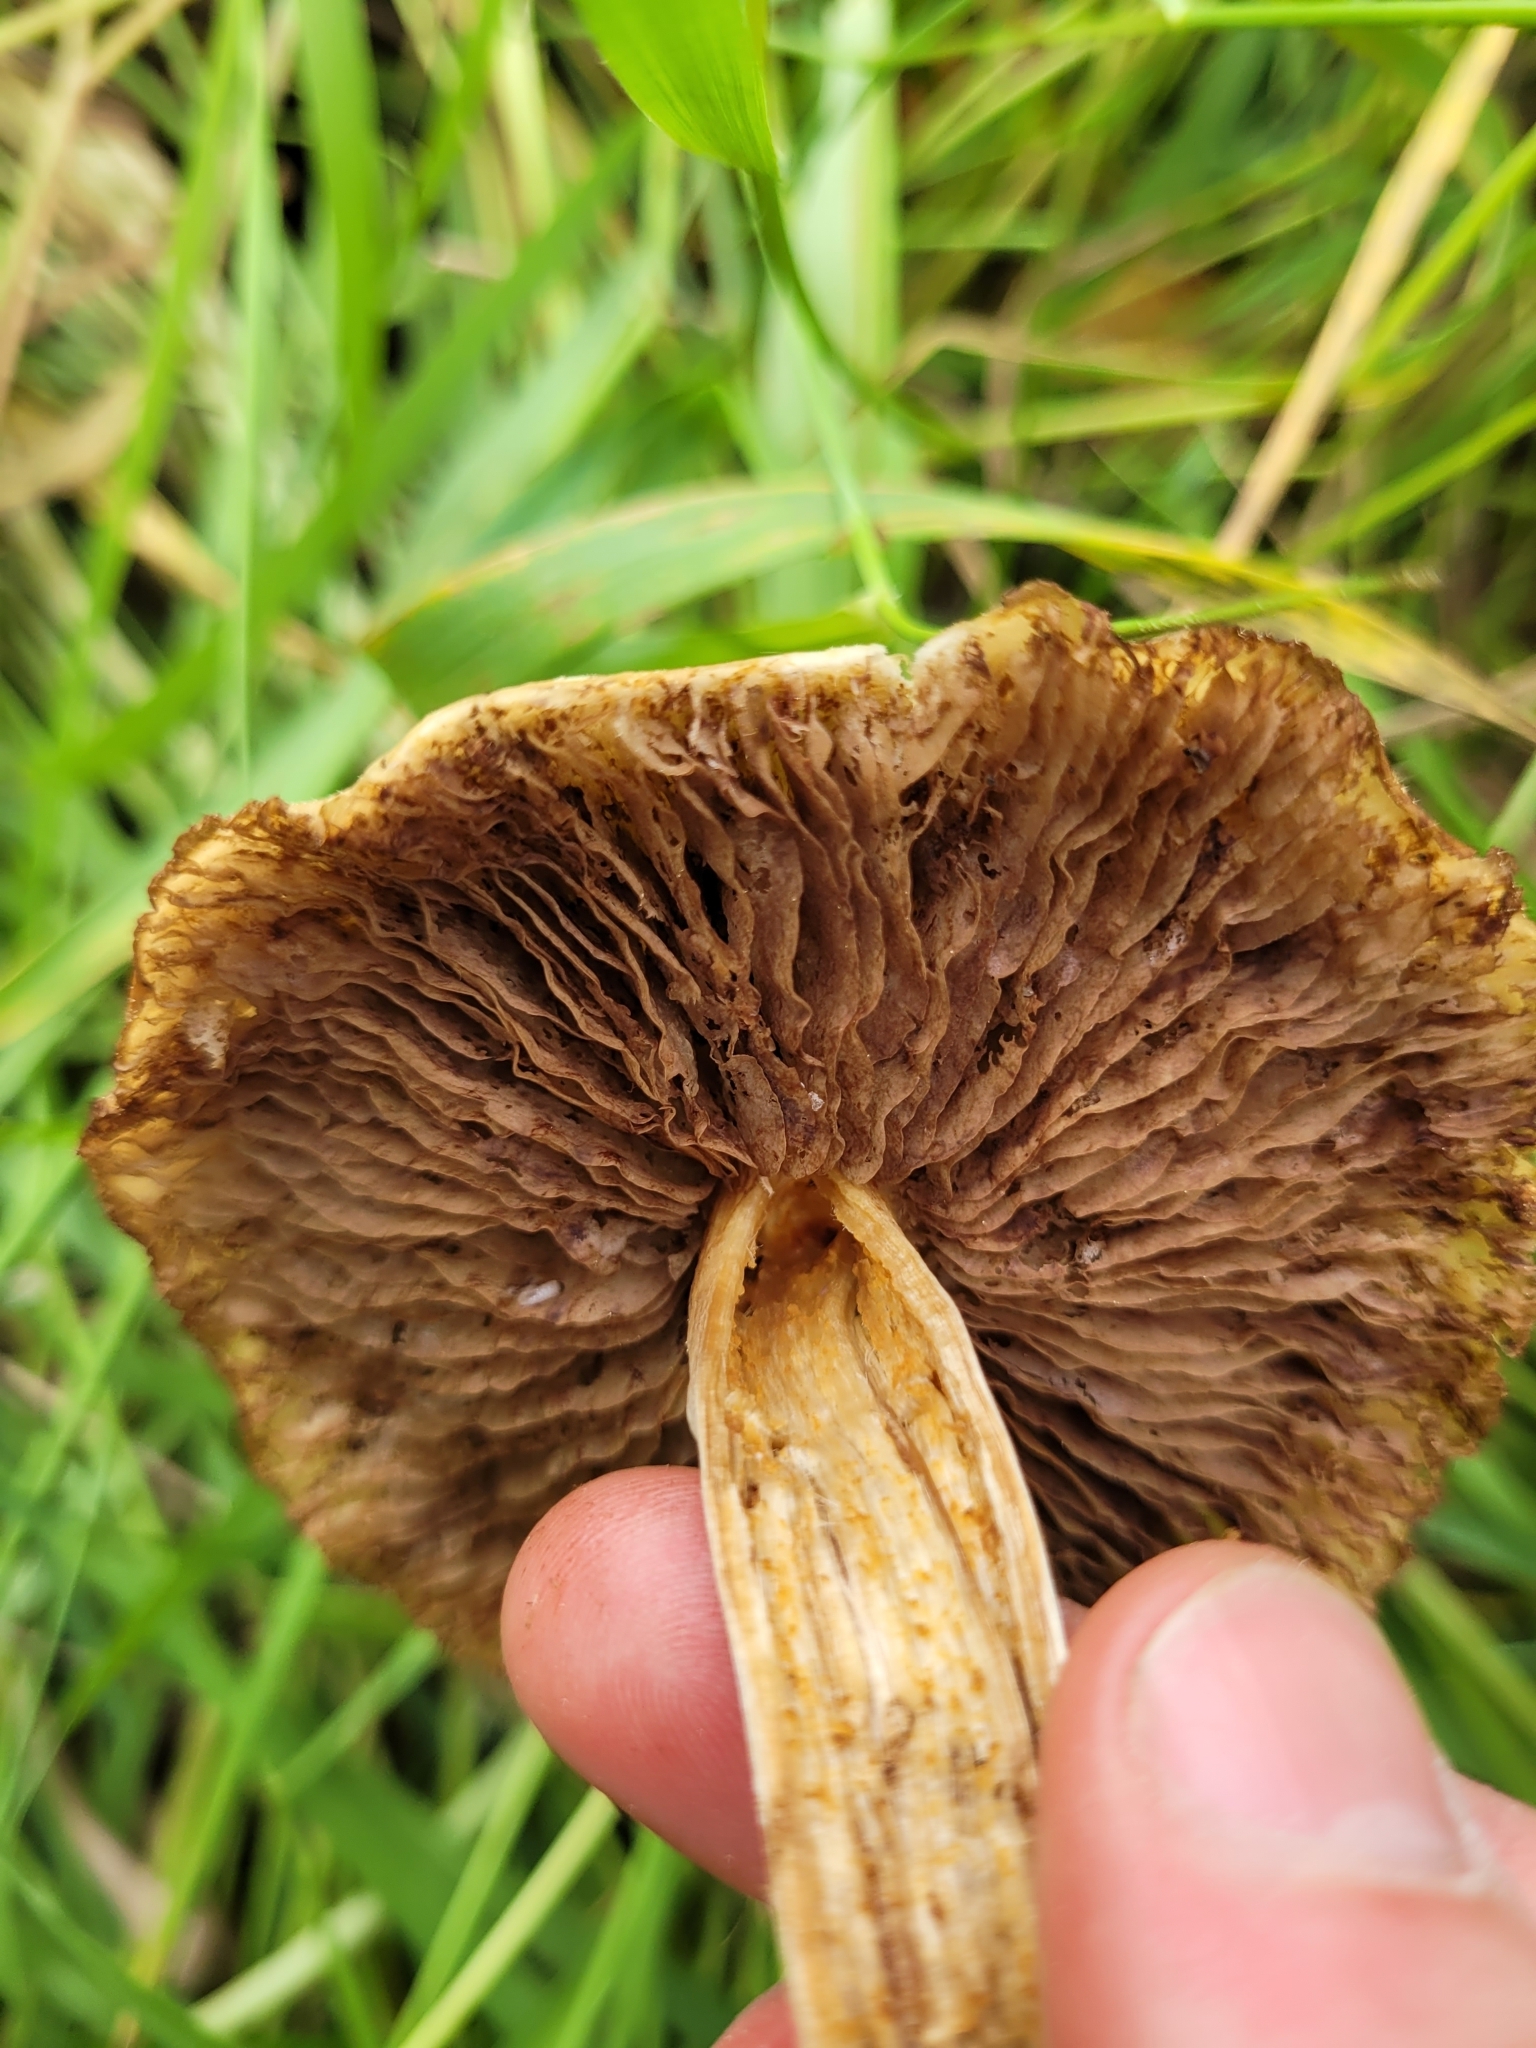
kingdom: Fungi
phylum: Basidiomycota
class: Agaricomycetes
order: Agaricales
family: Bolbitiaceae
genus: Bolbitius
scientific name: Bolbitius titubans
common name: Yellow fieldcap
